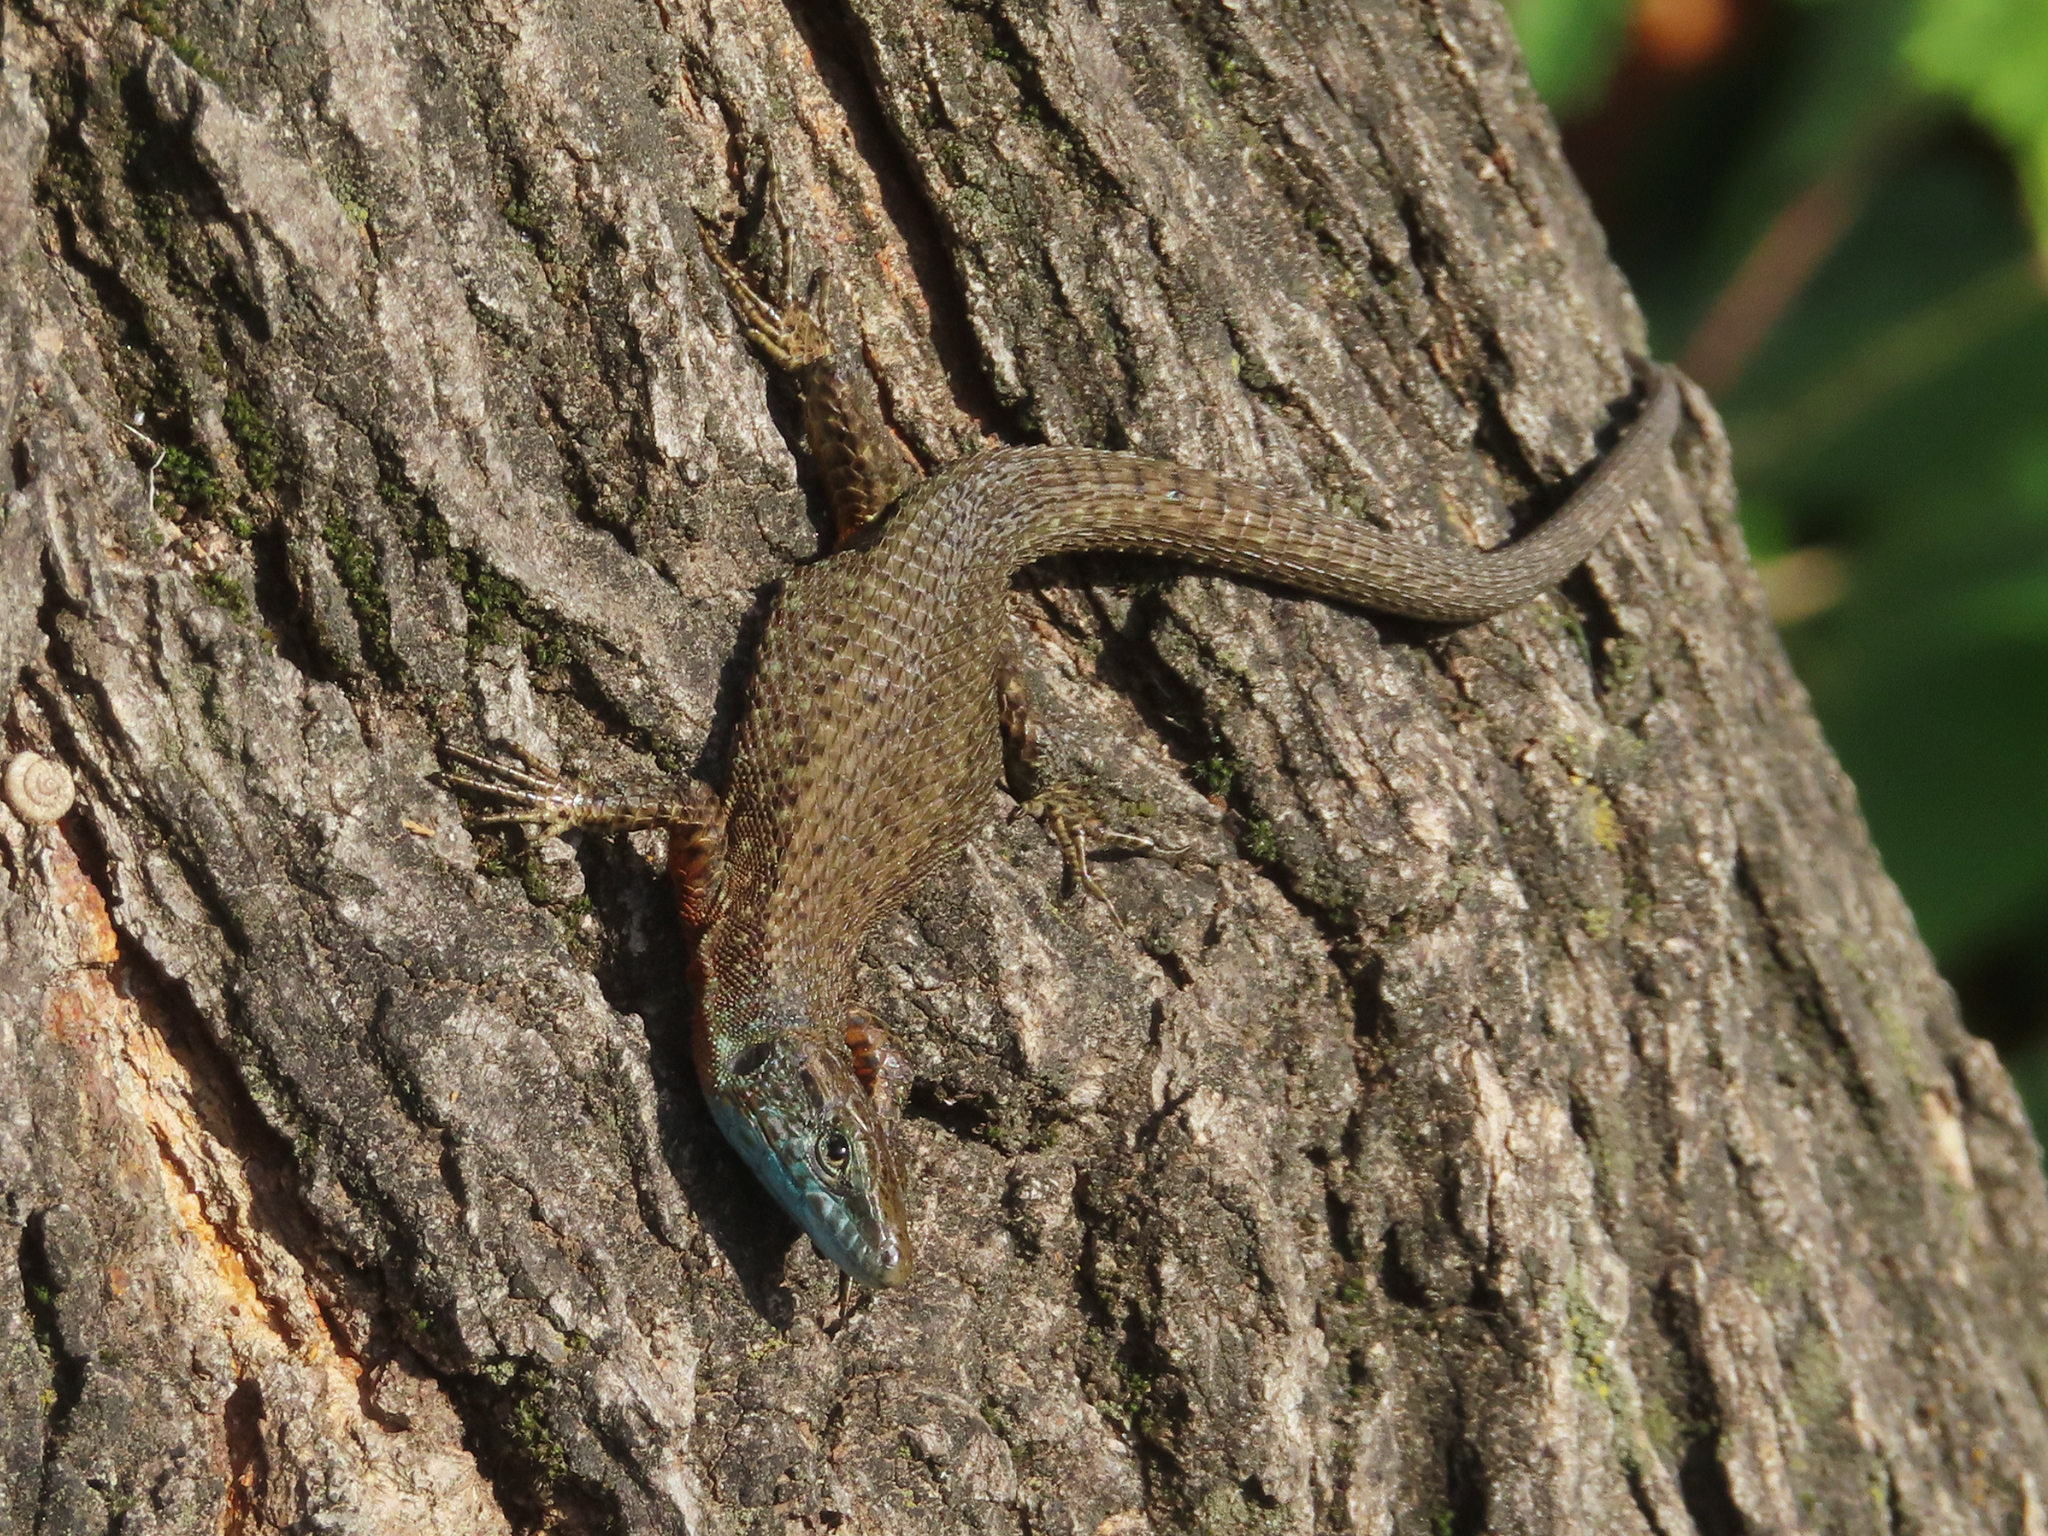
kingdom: Animalia
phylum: Chordata
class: Squamata
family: Lacertidae
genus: Algyroides
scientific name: Algyroides nigropunctatus
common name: Blue-throated keeled lizard
